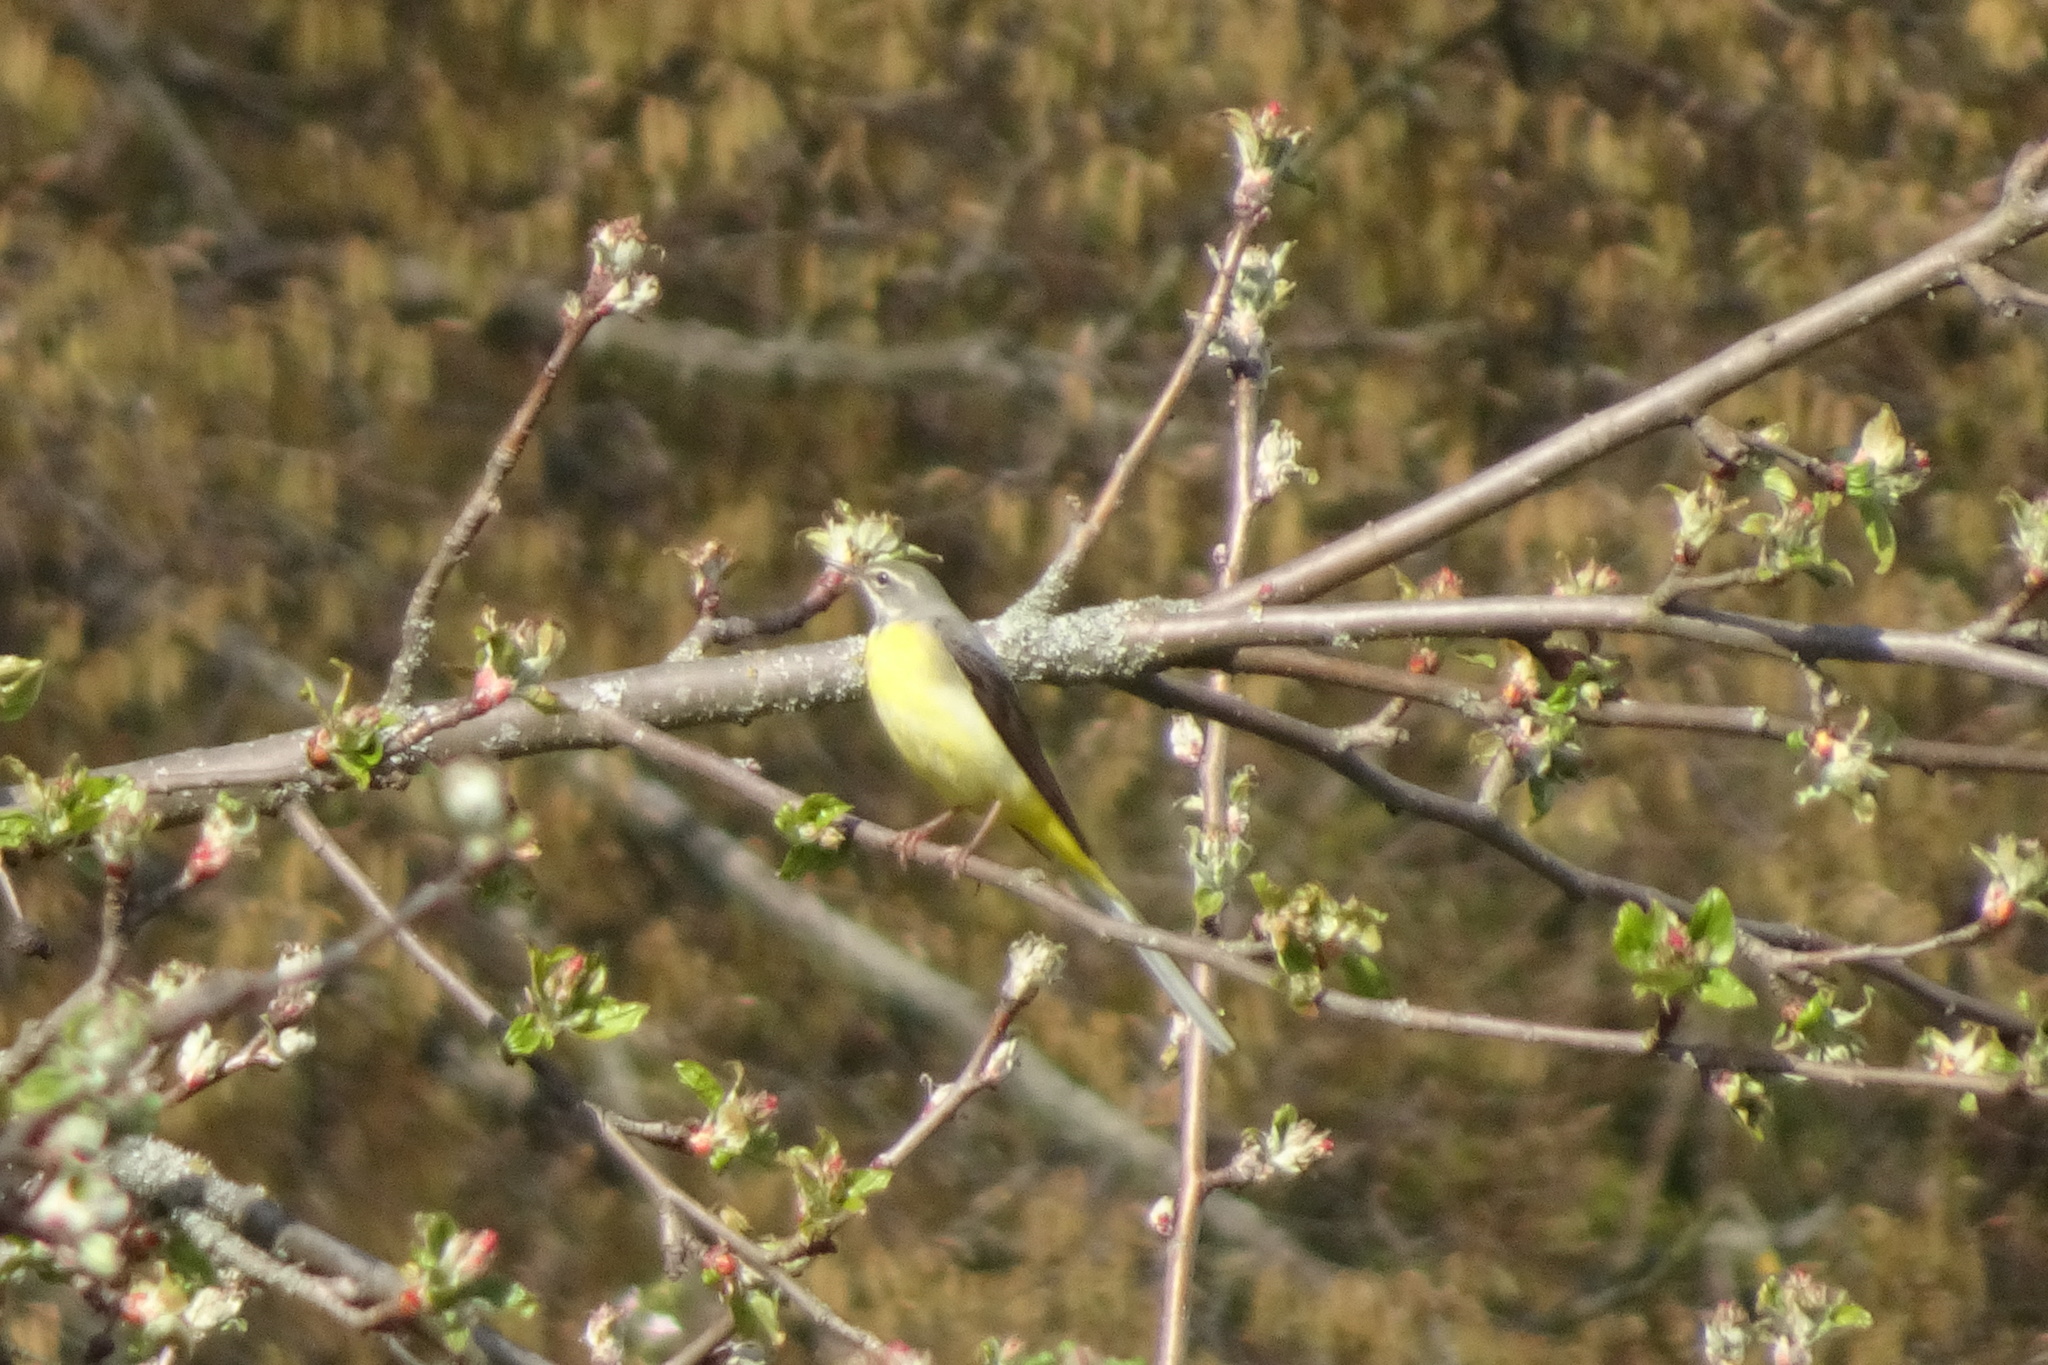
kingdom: Animalia
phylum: Chordata
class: Aves
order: Passeriformes
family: Motacillidae
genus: Motacilla
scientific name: Motacilla cinerea
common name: Grey wagtail
